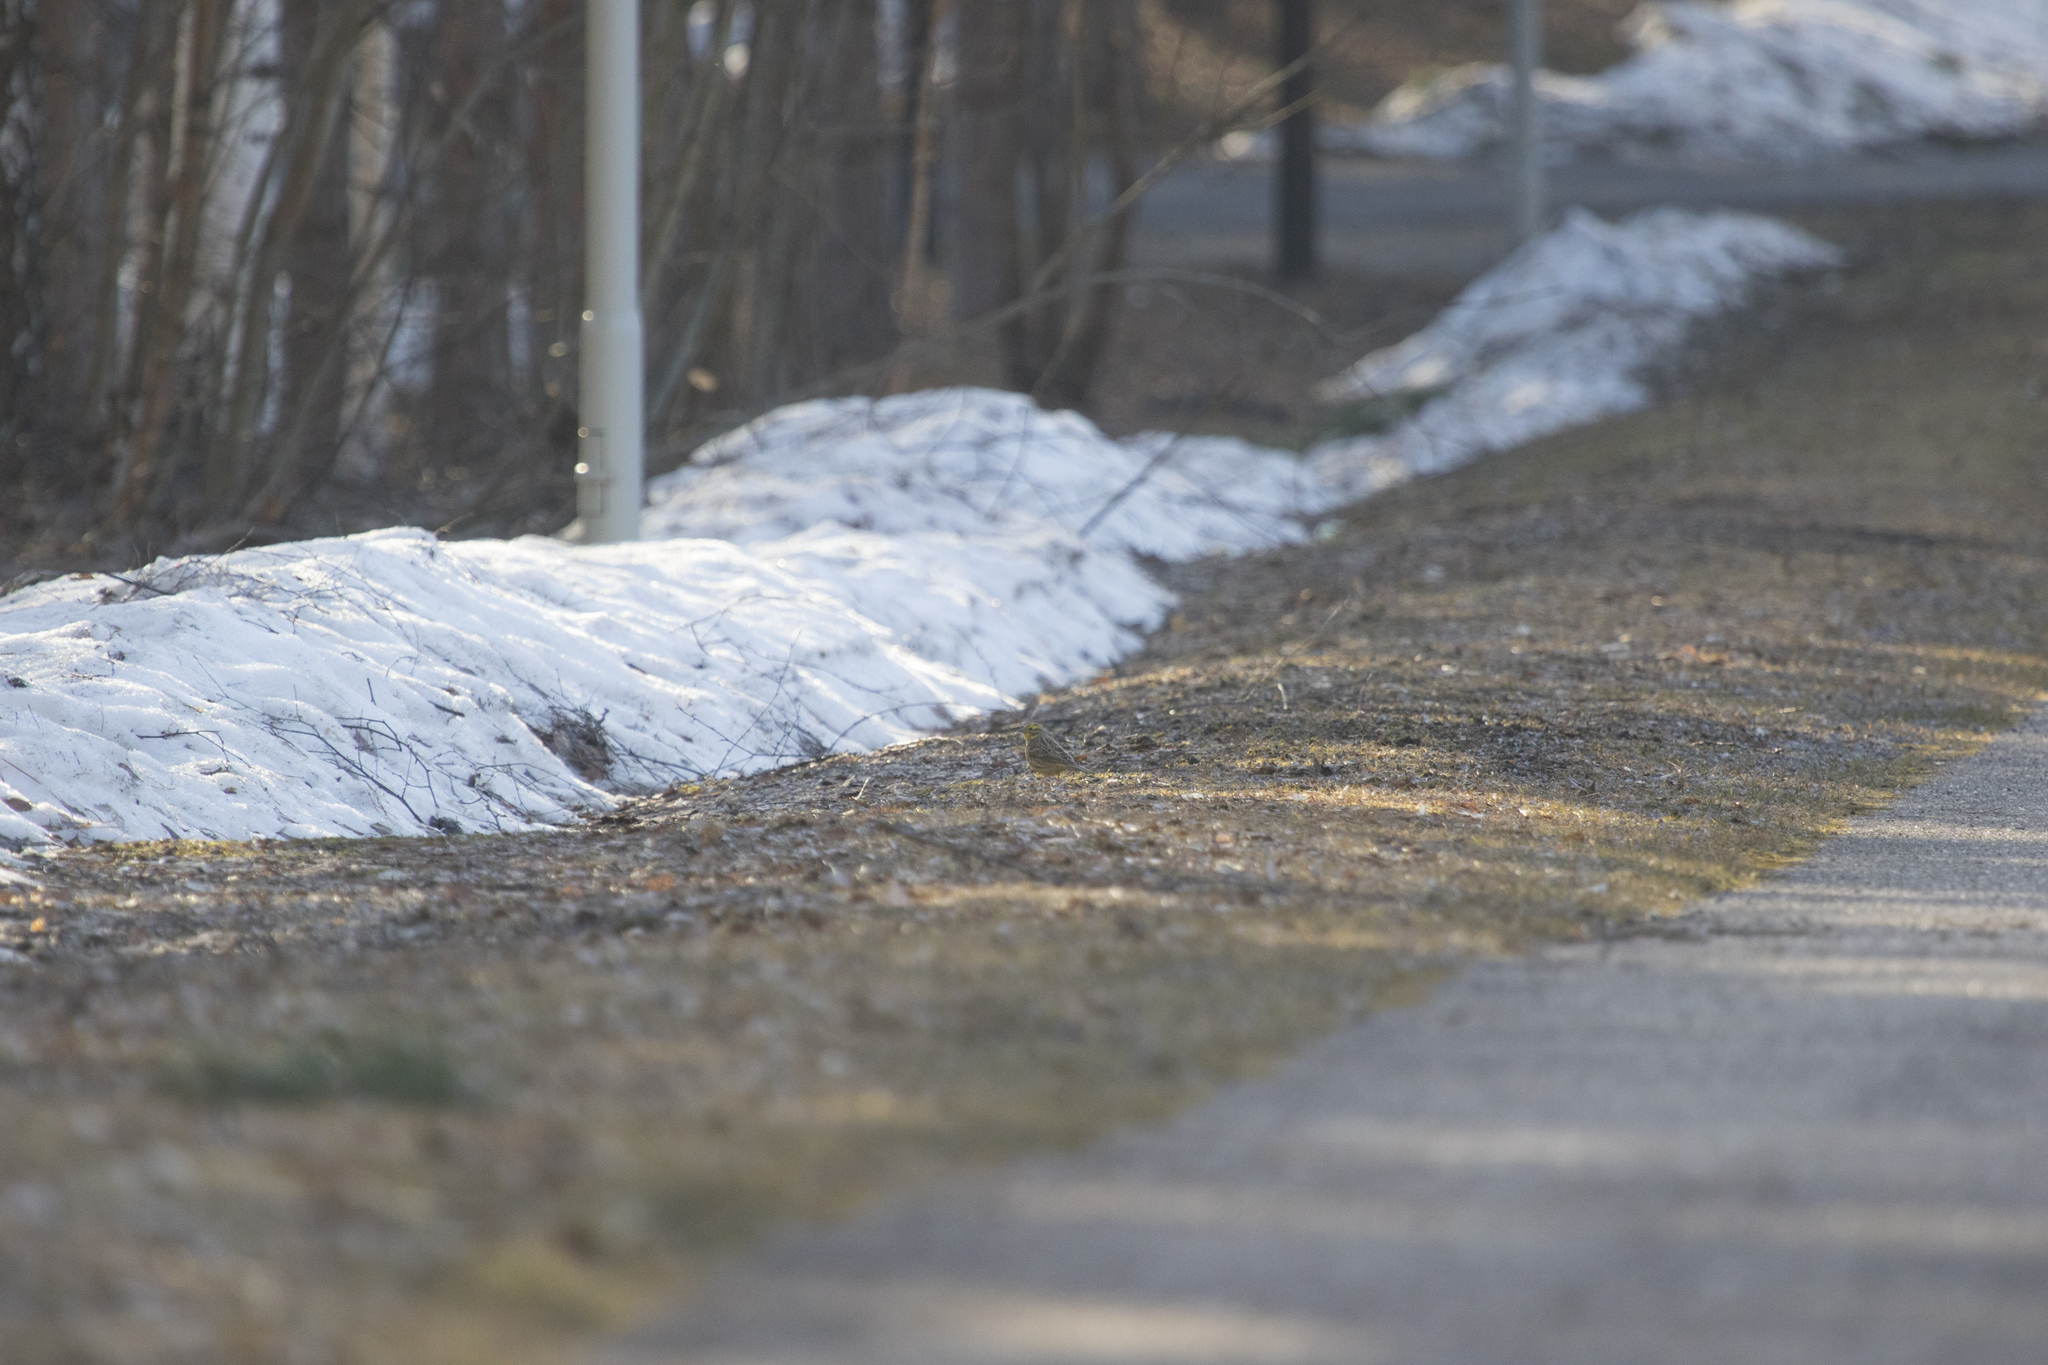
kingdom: Animalia
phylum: Chordata
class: Aves
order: Passeriformes
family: Emberizidae
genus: Emberiza
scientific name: Emberiza citrinella
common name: Yellowhammer
